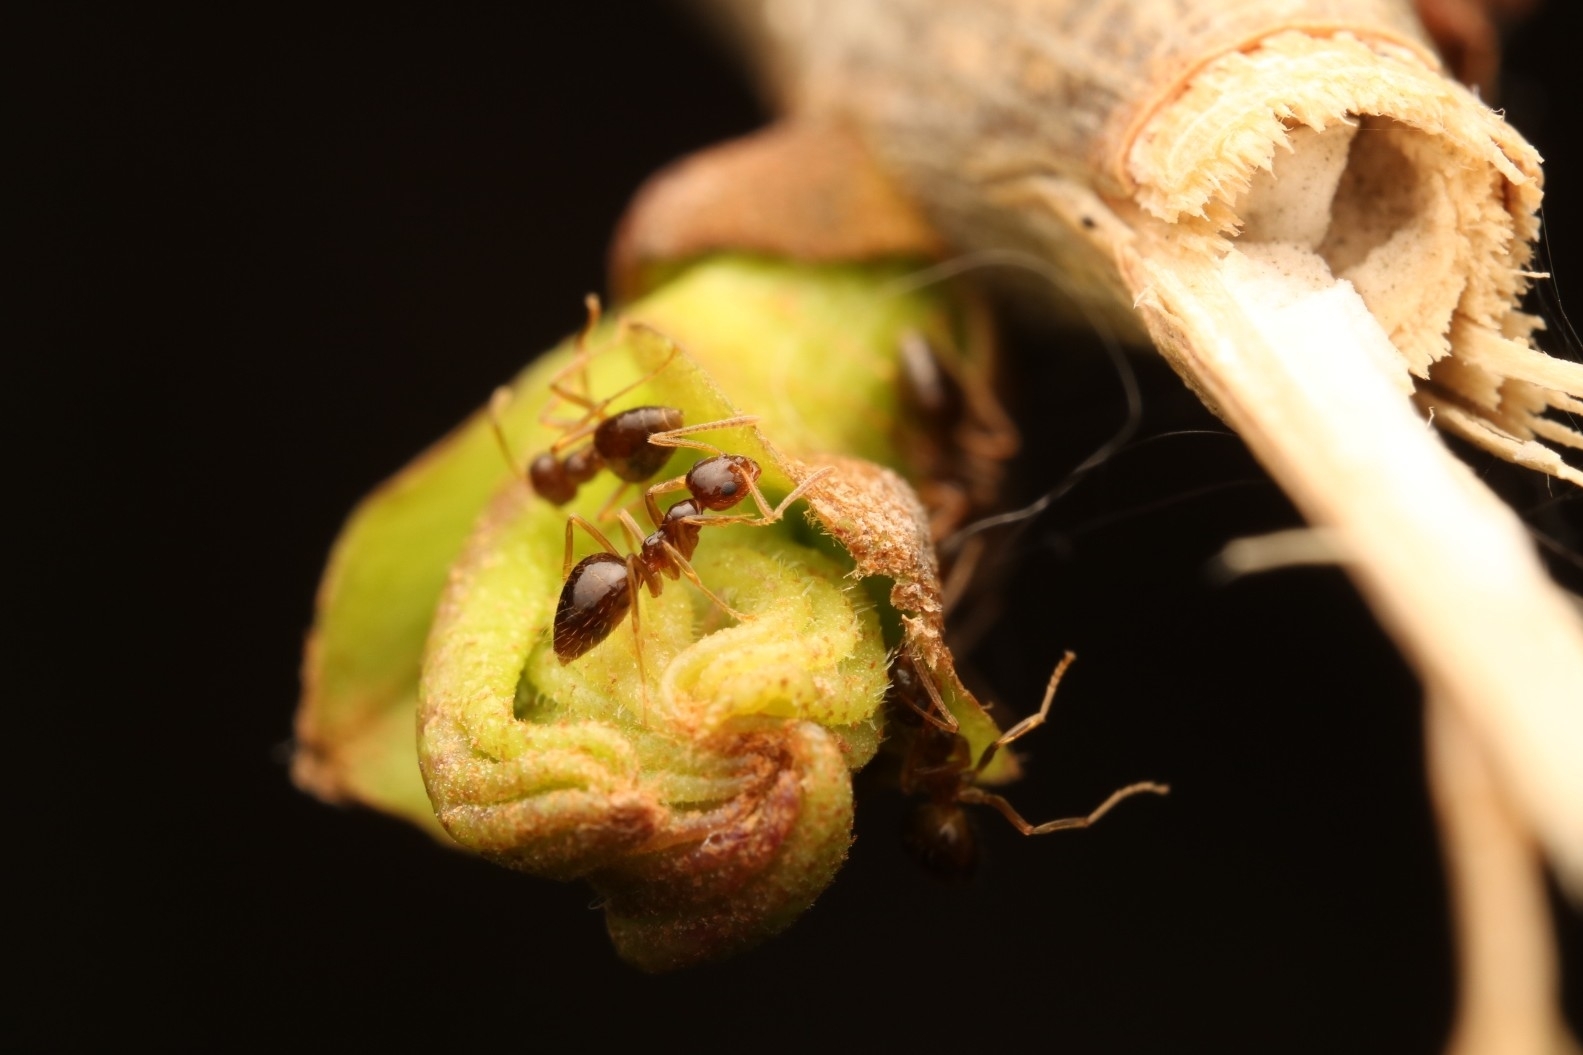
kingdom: Animalia
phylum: Arthropoda
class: Insecta
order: Hymenoptera
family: Formicidae
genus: Prenolepis
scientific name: Prenolepis imparis
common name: Small honey ant
